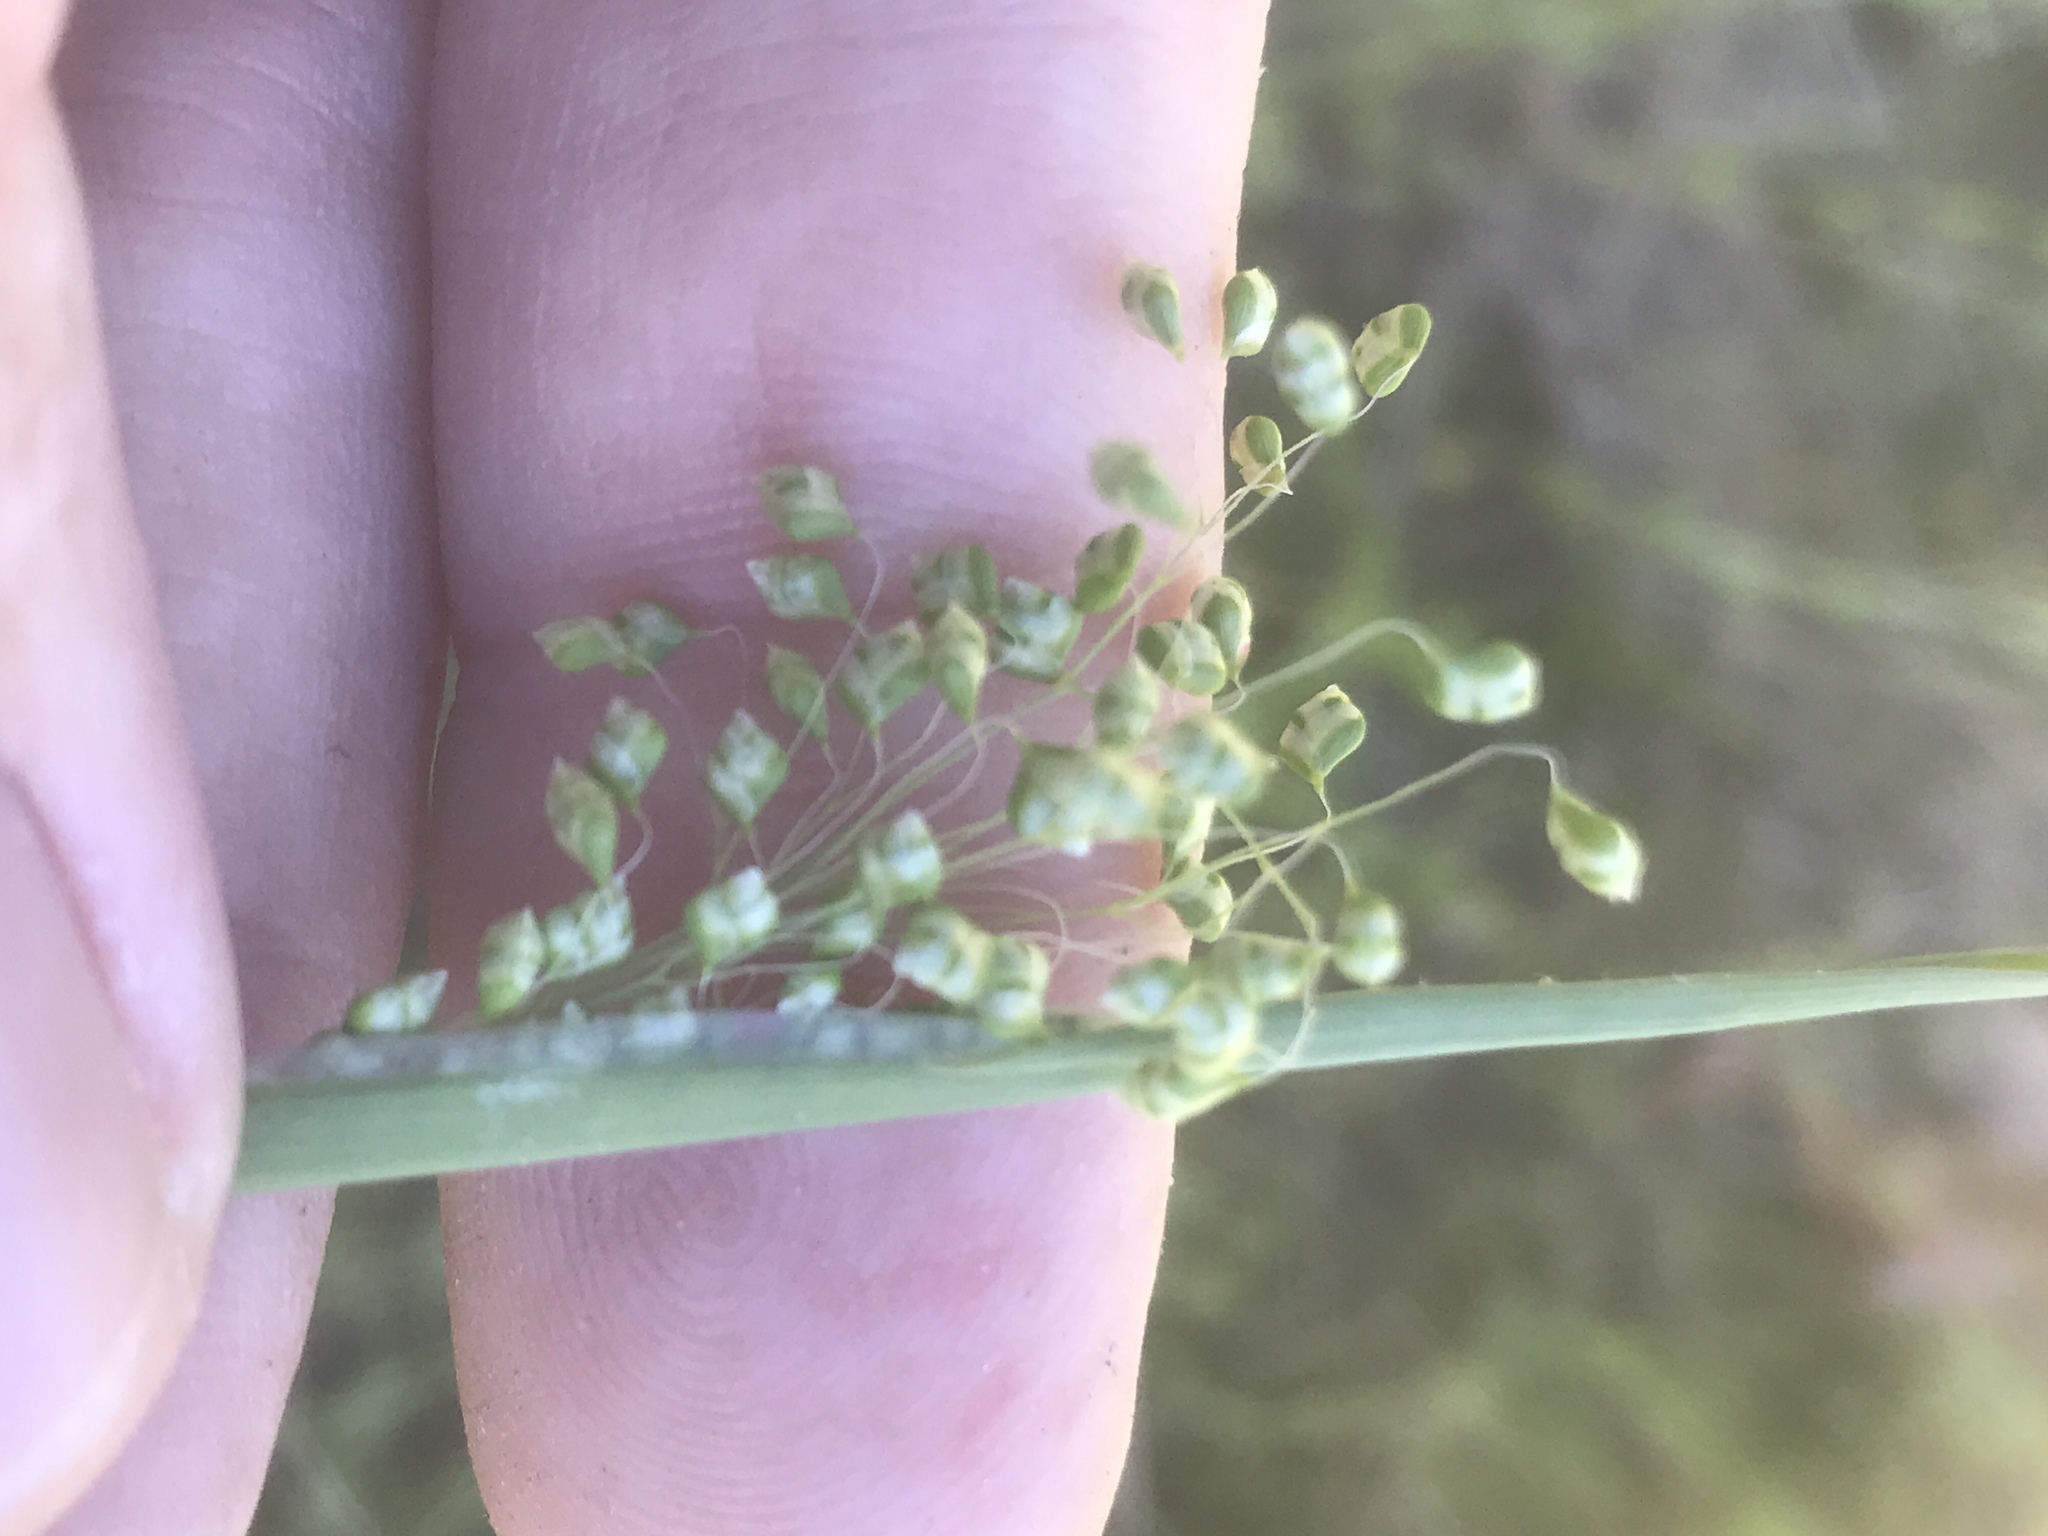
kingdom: Plantae
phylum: Tracheophyta
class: Liliopsida
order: Poales
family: Poaceae
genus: Briza
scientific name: Briza minor
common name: Lesser quaking-grass
